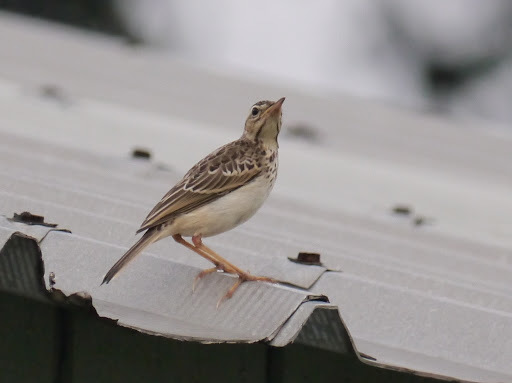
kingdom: Animalia
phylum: Chordata
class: Aves
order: Passeriformes
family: Motacillidae
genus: Anthus
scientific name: Anthus pallidiventris
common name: Long-legged pipit
